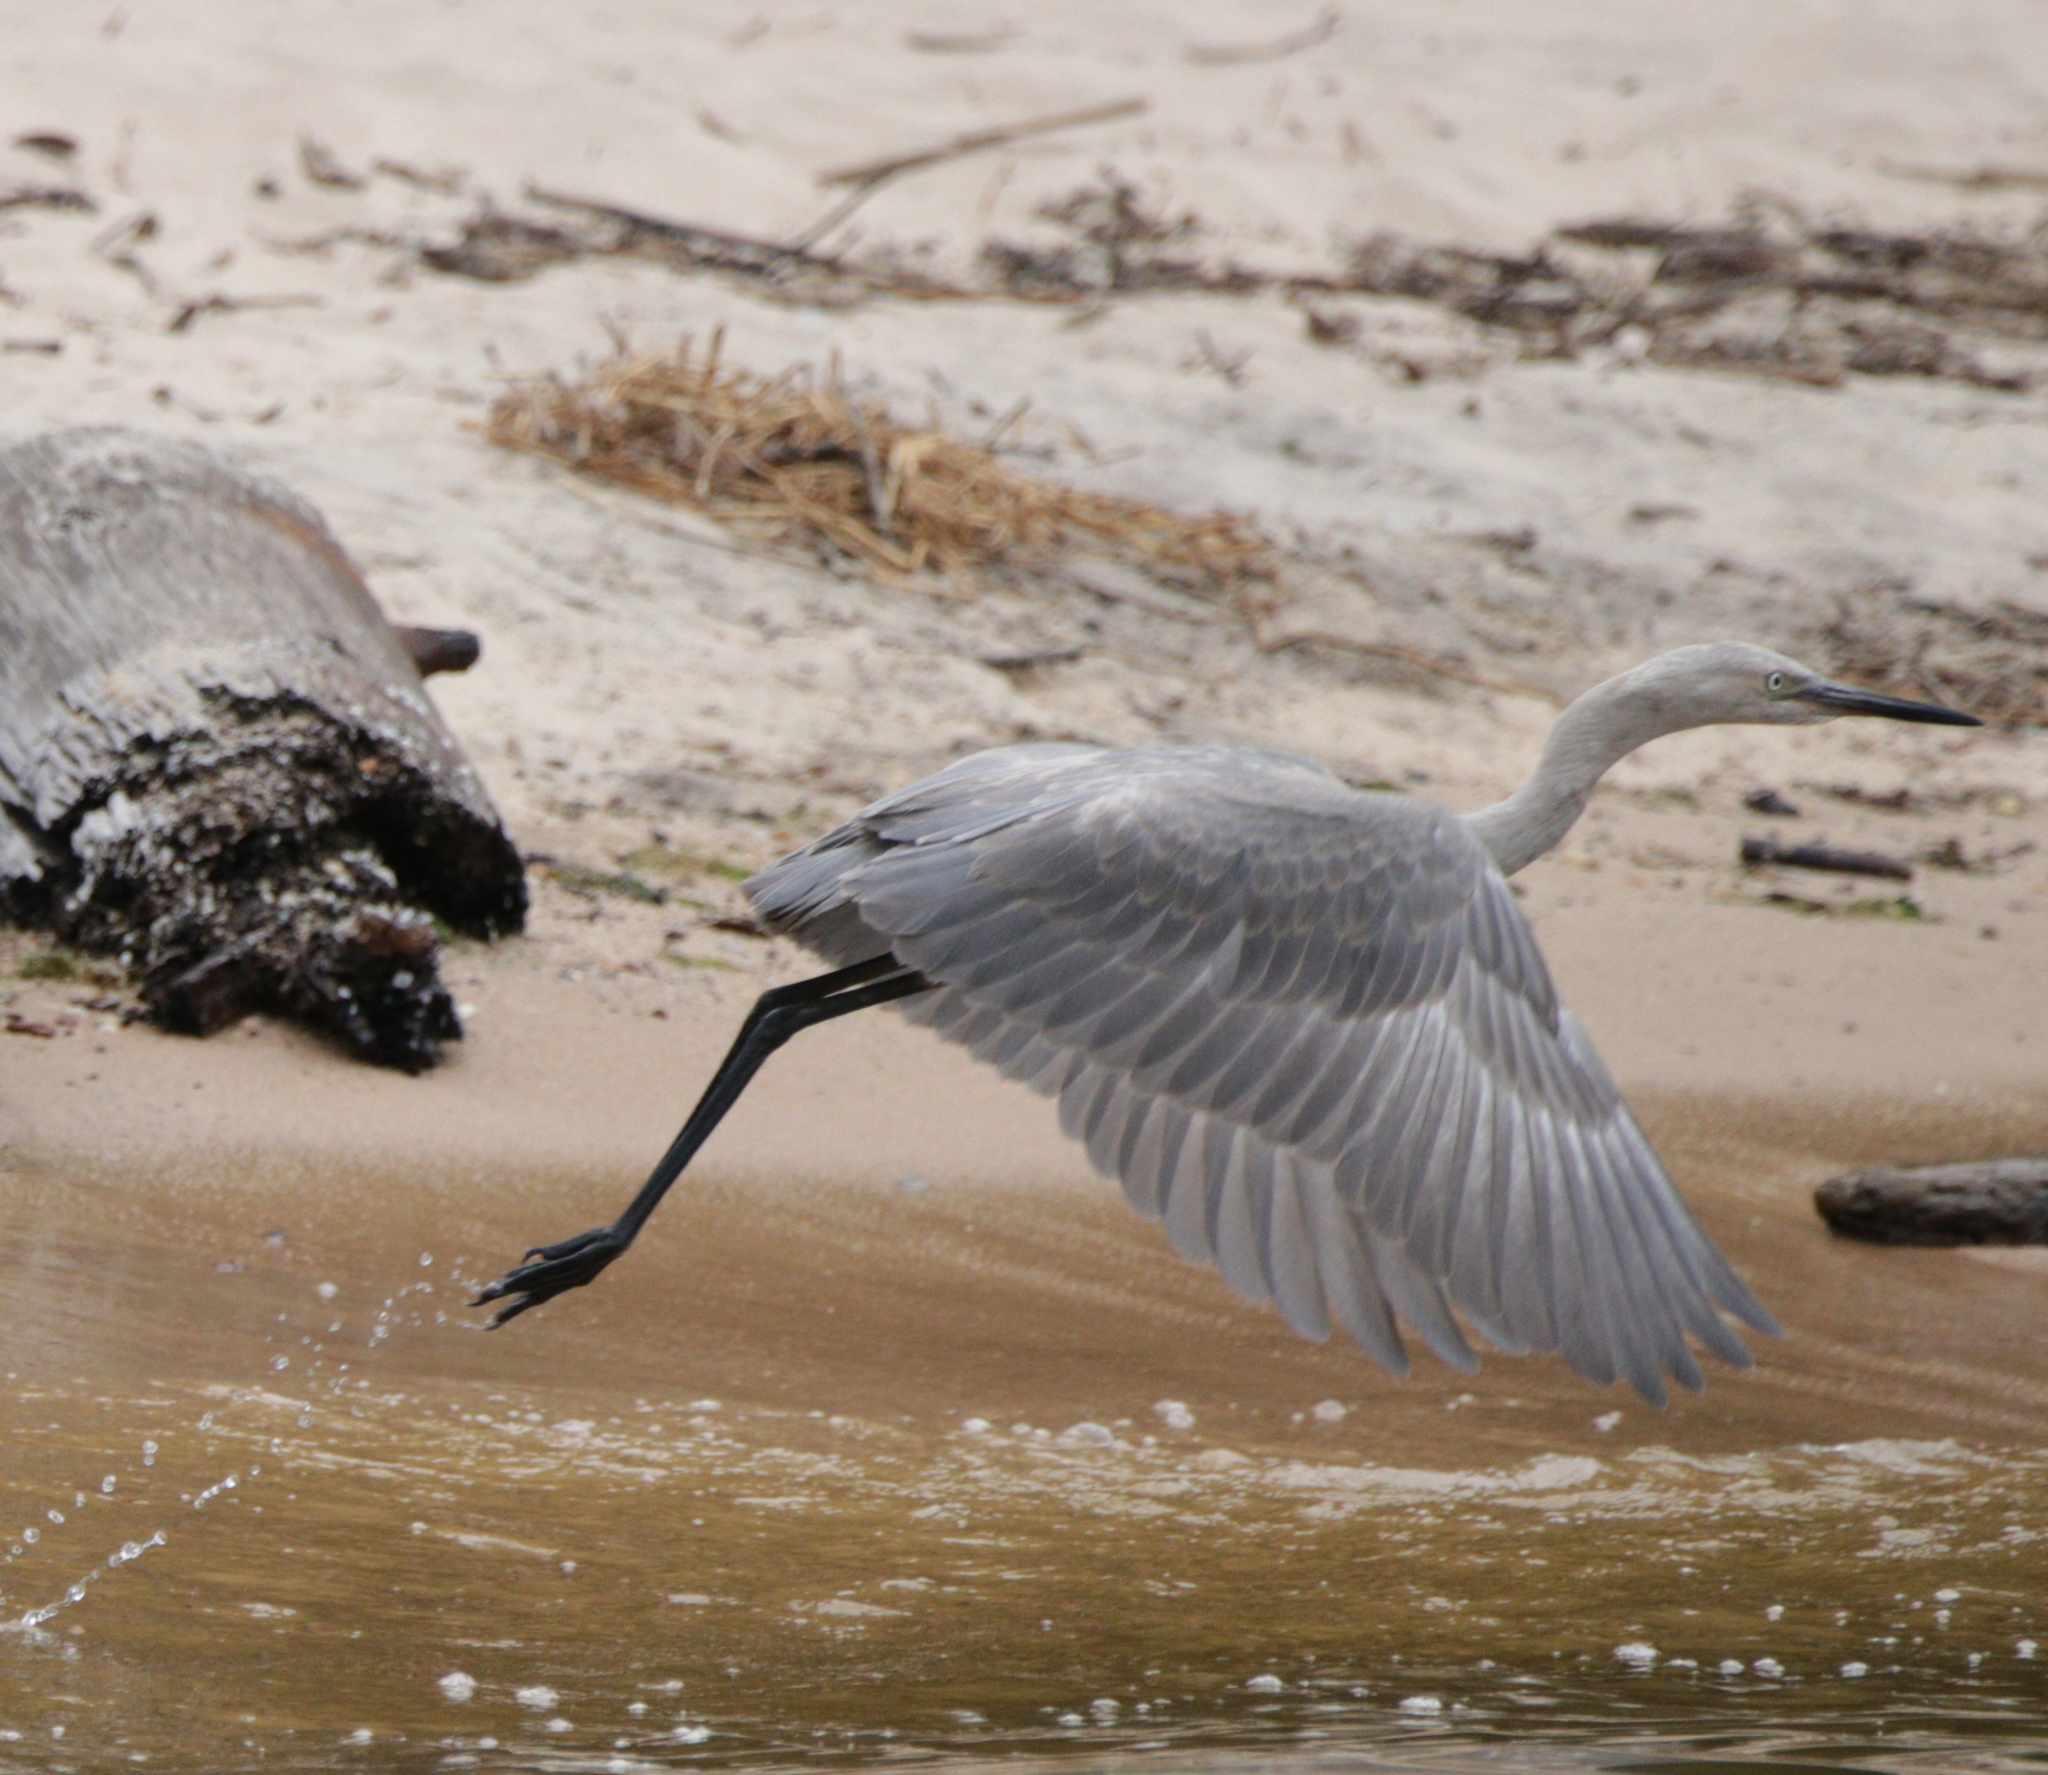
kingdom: Animalia
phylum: Chordata
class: Aves
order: Pelecaniformes
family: Ardeidae
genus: Egretta
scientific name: Egretta rufescens
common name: Reddish egret
